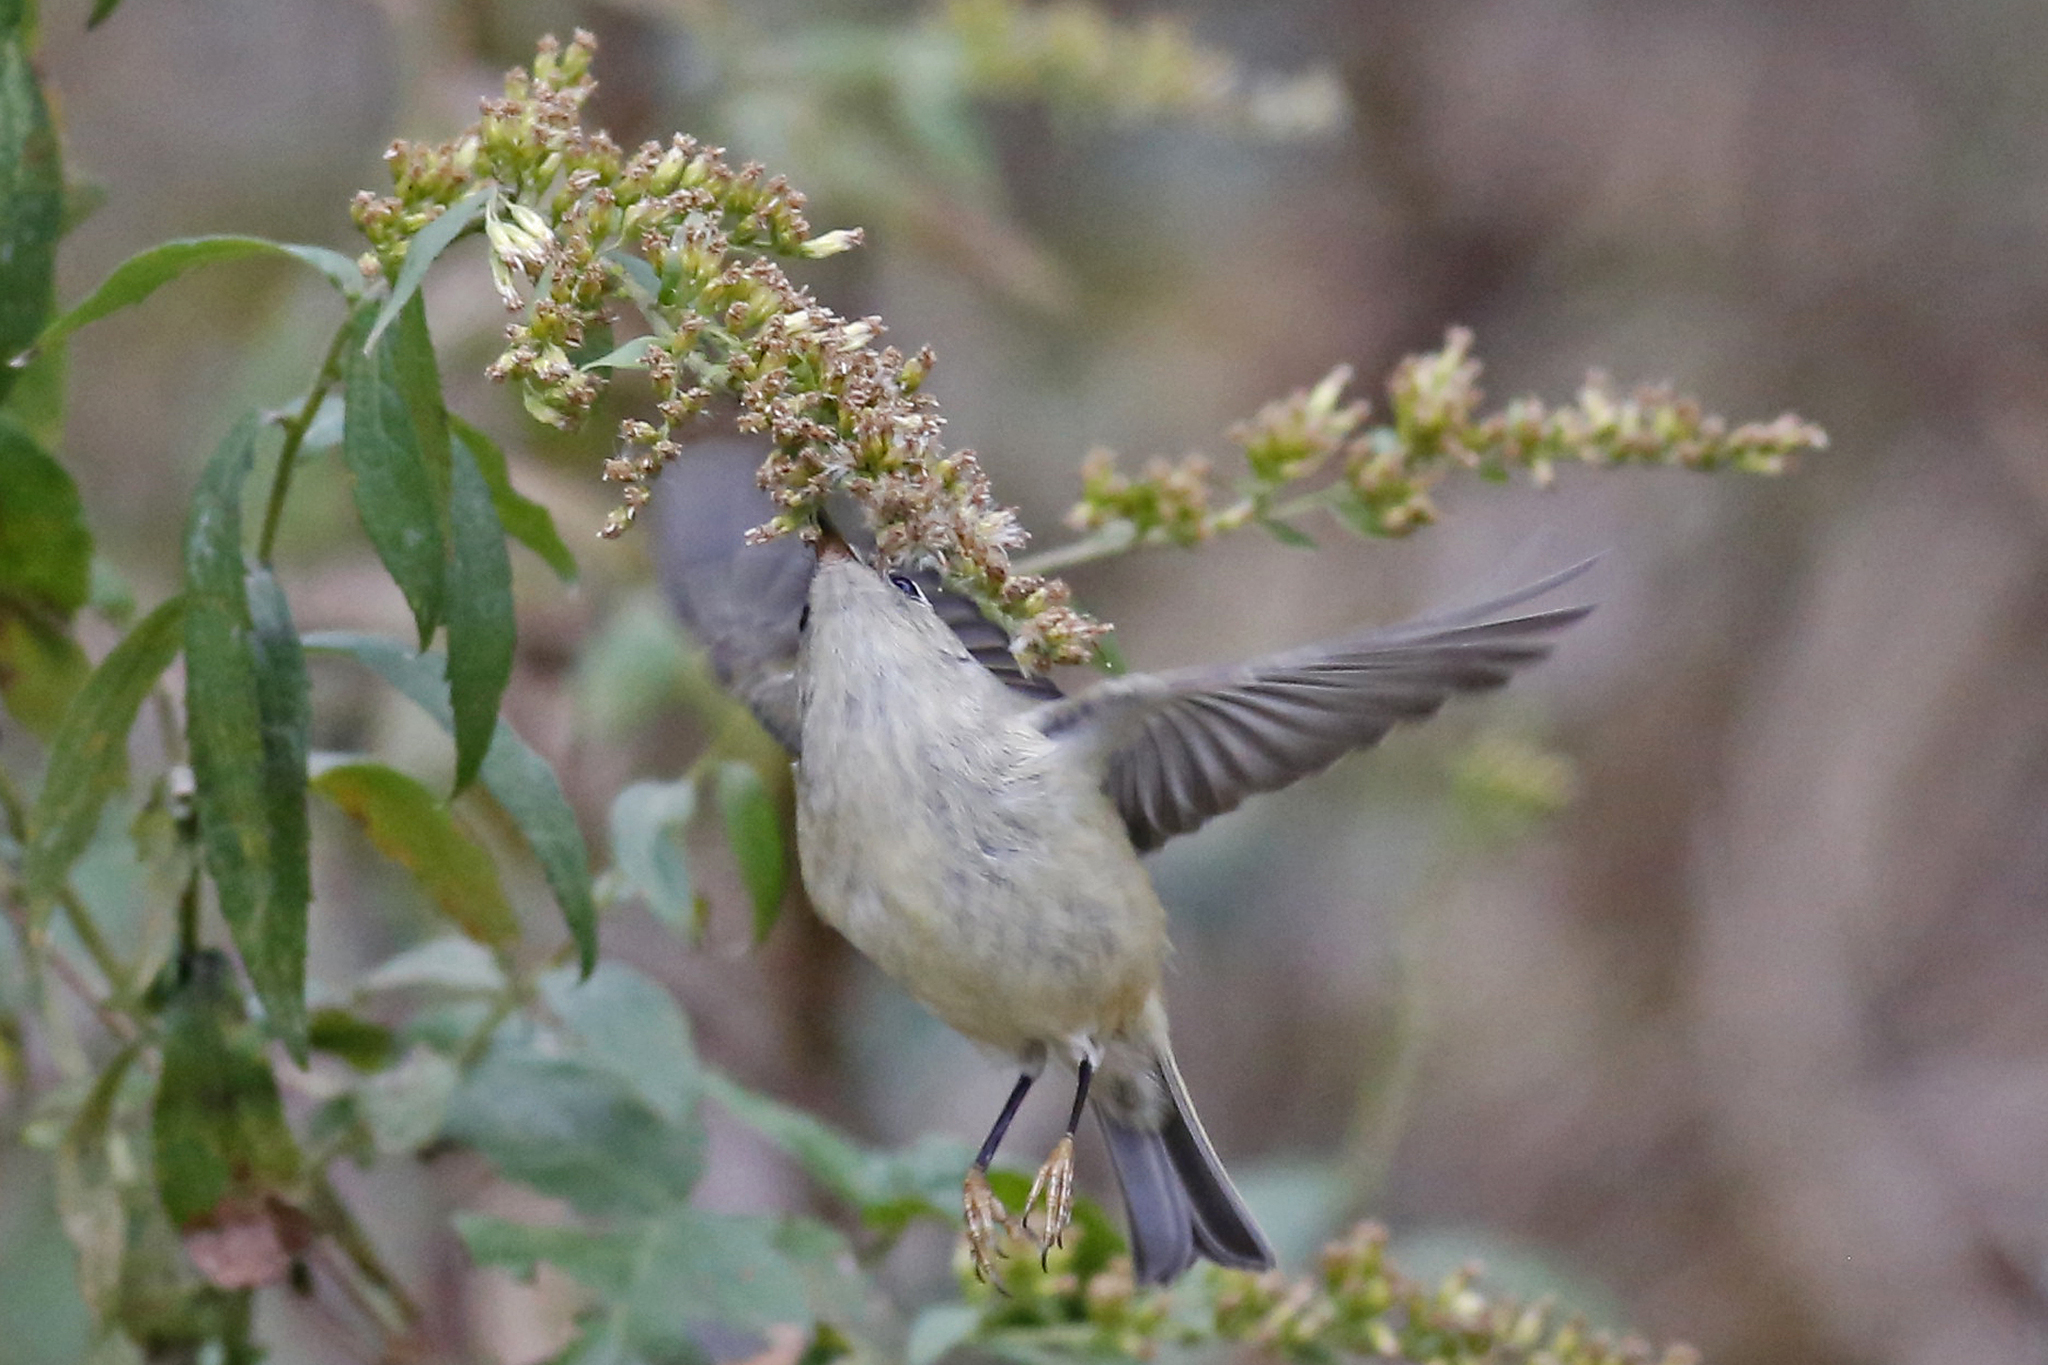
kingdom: Animalia
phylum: Chordata
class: Aves
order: Passeriformes
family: Regulidae
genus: Regulus
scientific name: Regulus calendula
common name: Ruby-crowned kinglet
